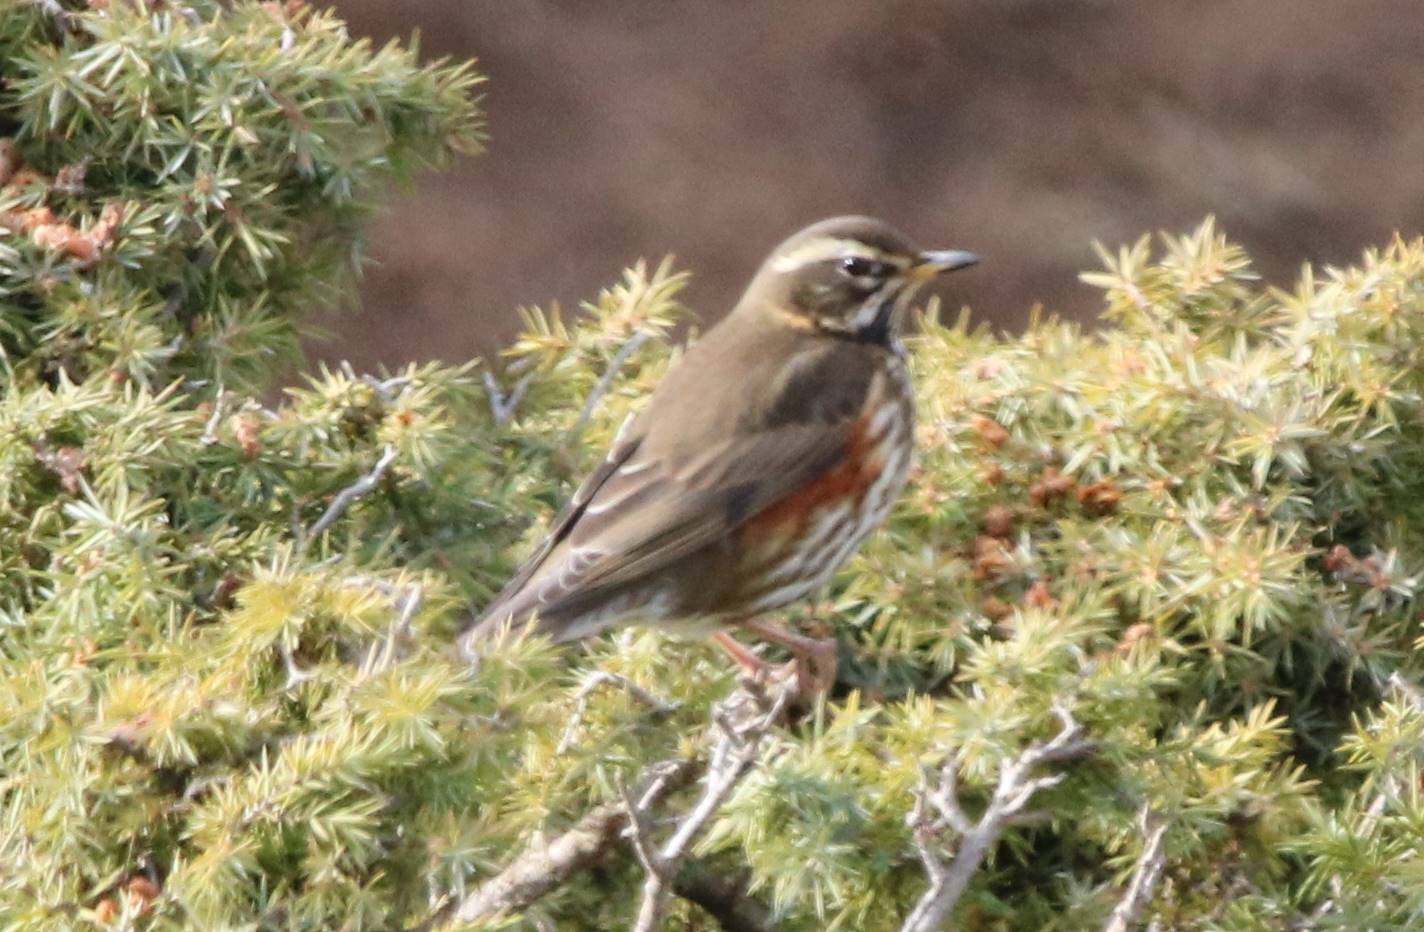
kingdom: Animalia
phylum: Chordata
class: Aves
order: Passeriformes
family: Turdidae
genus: Turdus
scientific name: Turdus iliacus
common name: Redwing
